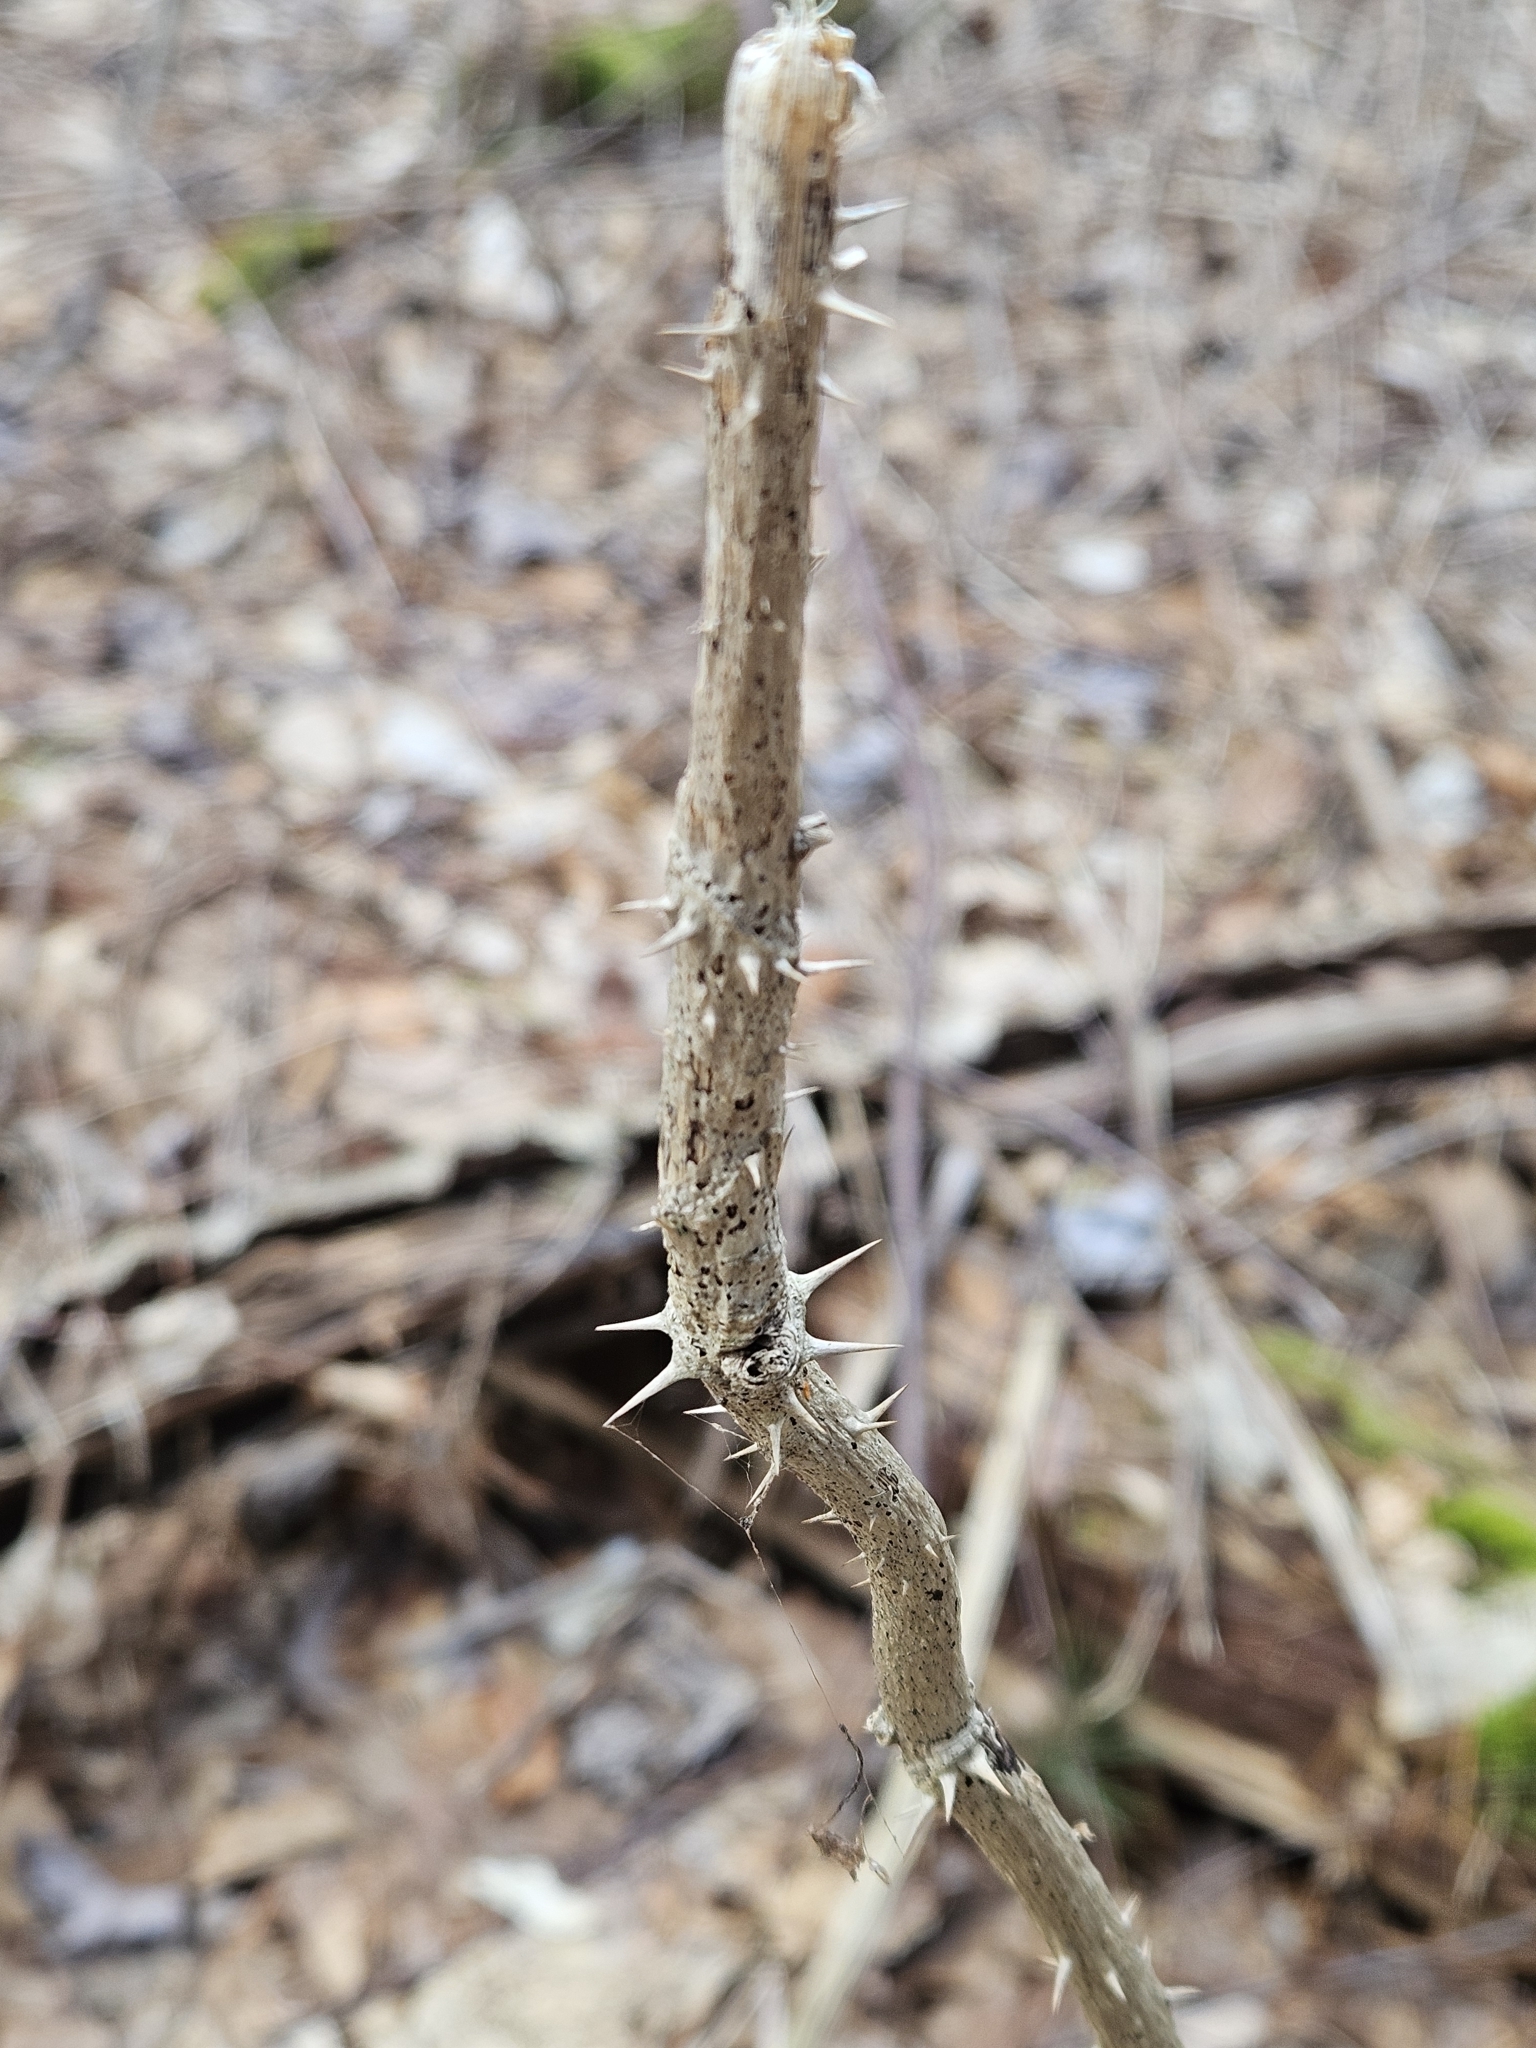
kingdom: Plantae
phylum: Tracheophyta
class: Magnoliopsida
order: Apiales
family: Araliaceae
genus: Aralia
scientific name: Aralia elata
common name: Japanese angelica-tree
